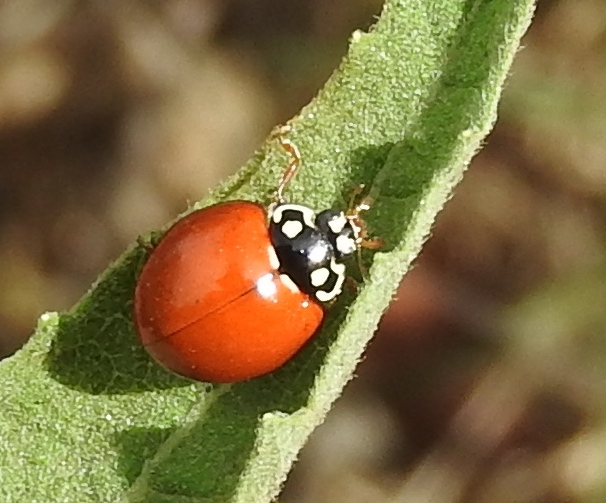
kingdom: Animalia
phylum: Arthropoda
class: Insecta
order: Coleoptera
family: Coccinellidae
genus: Cycloneda
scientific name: Cycloneda sanguinea
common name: Ladybird beetle
